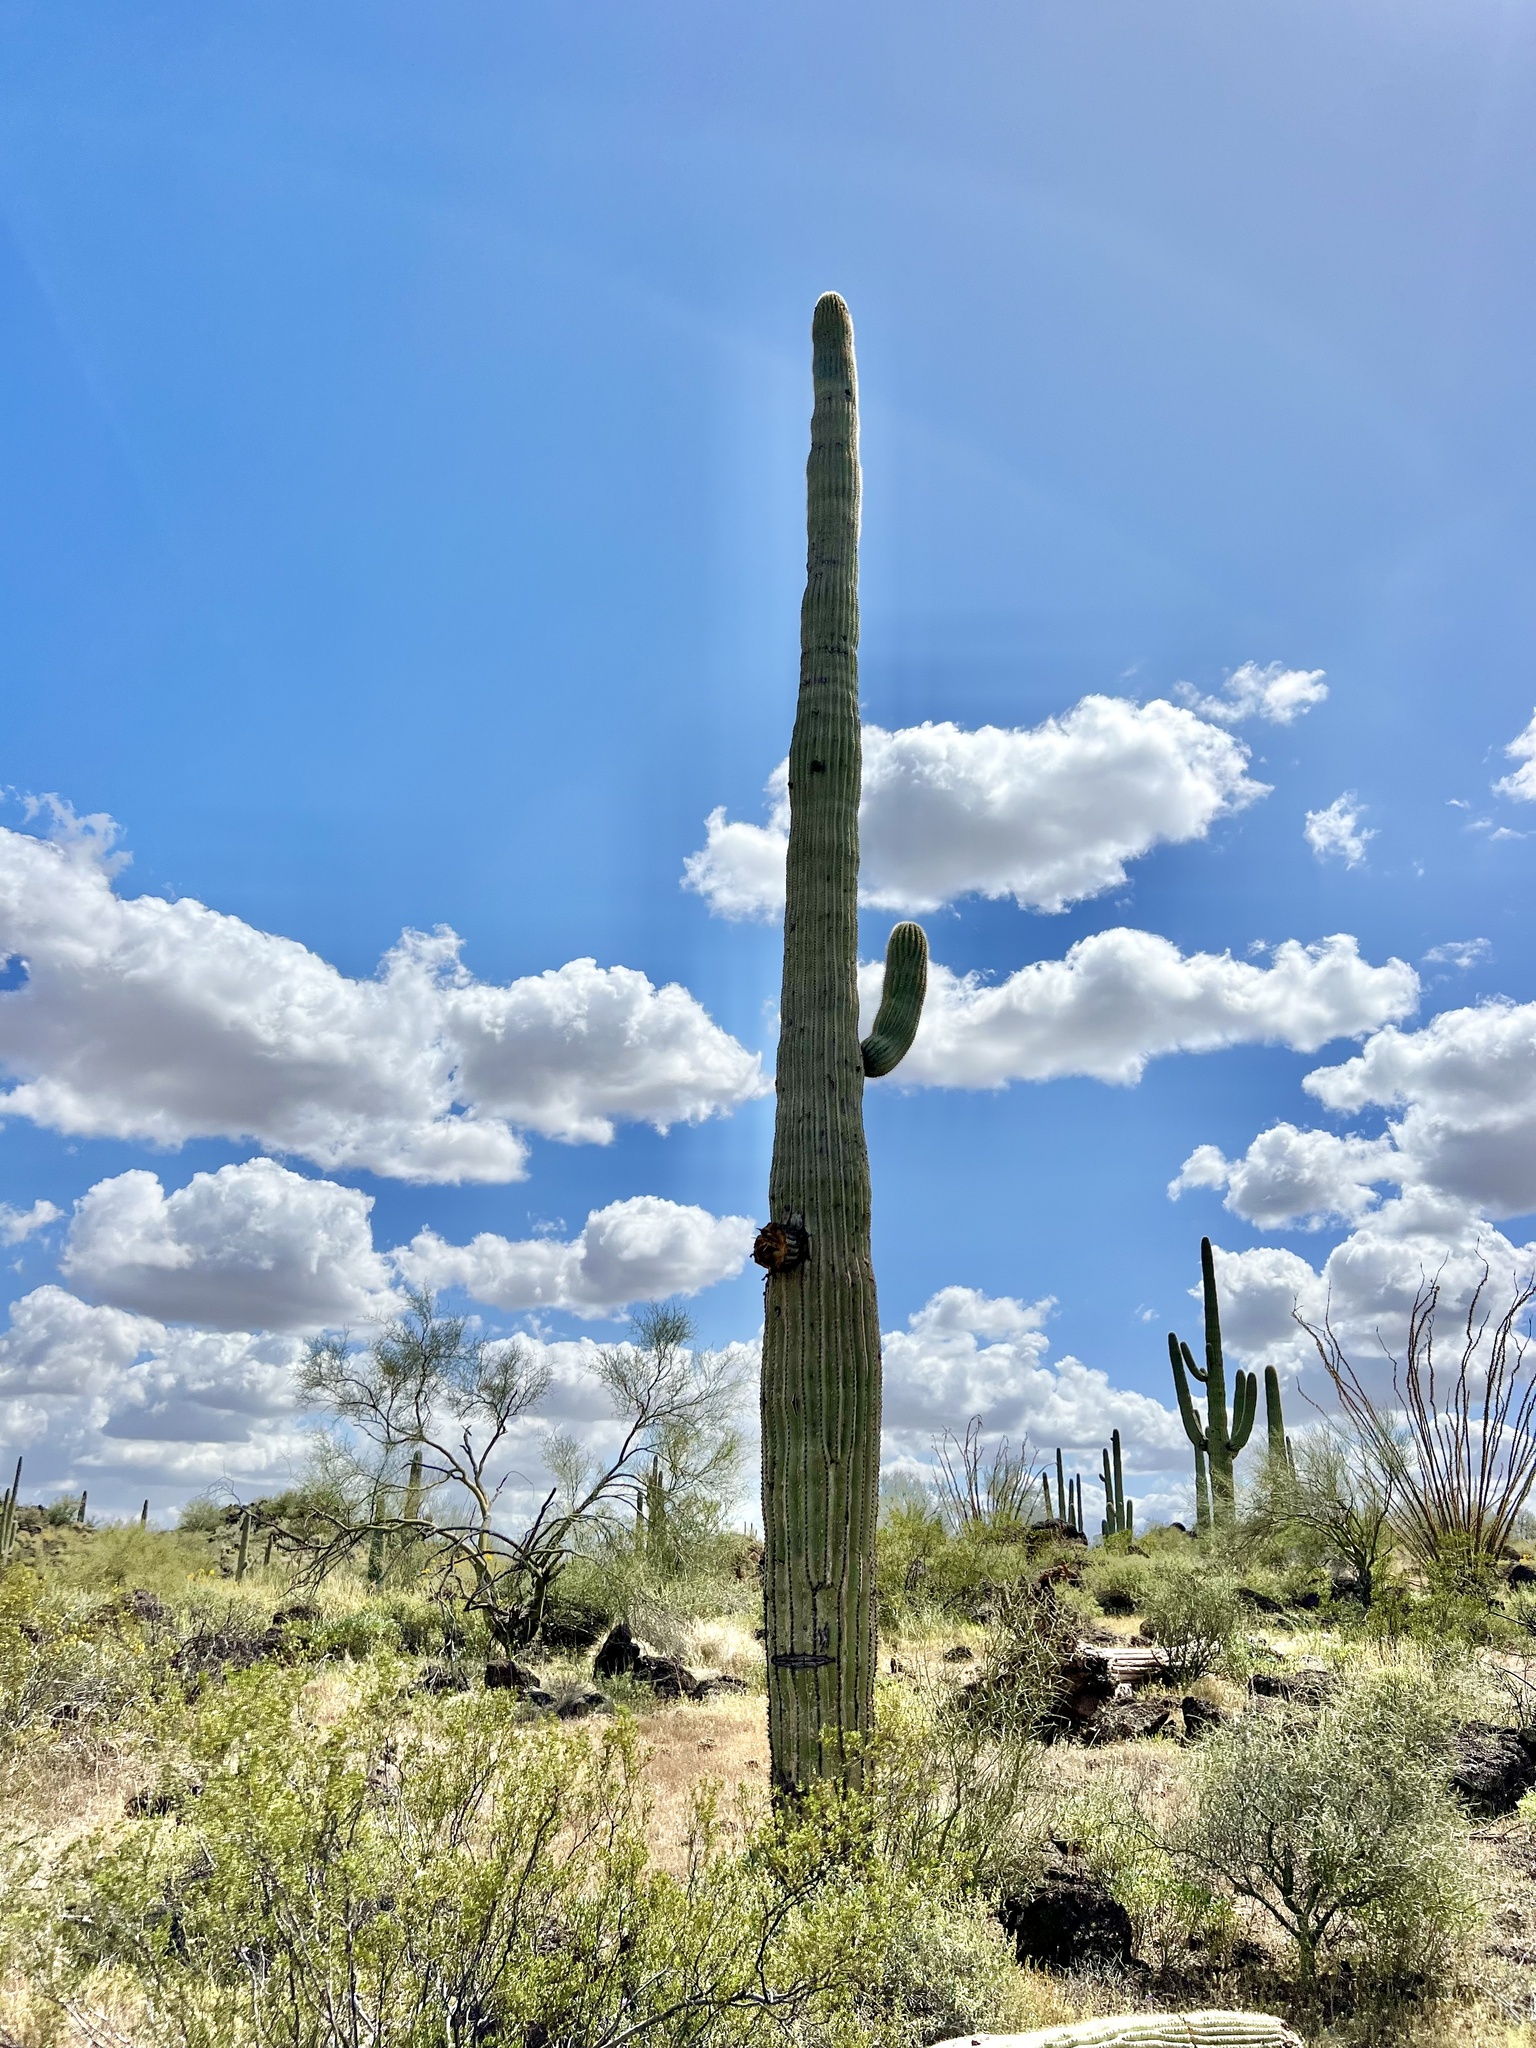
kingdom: Plantae
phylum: Tracheophyta
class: Magnoliopsida
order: Caryophyllales
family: Cactaceae
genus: Carnegiea
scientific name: Carnegiea gigantea
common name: Saguaro
